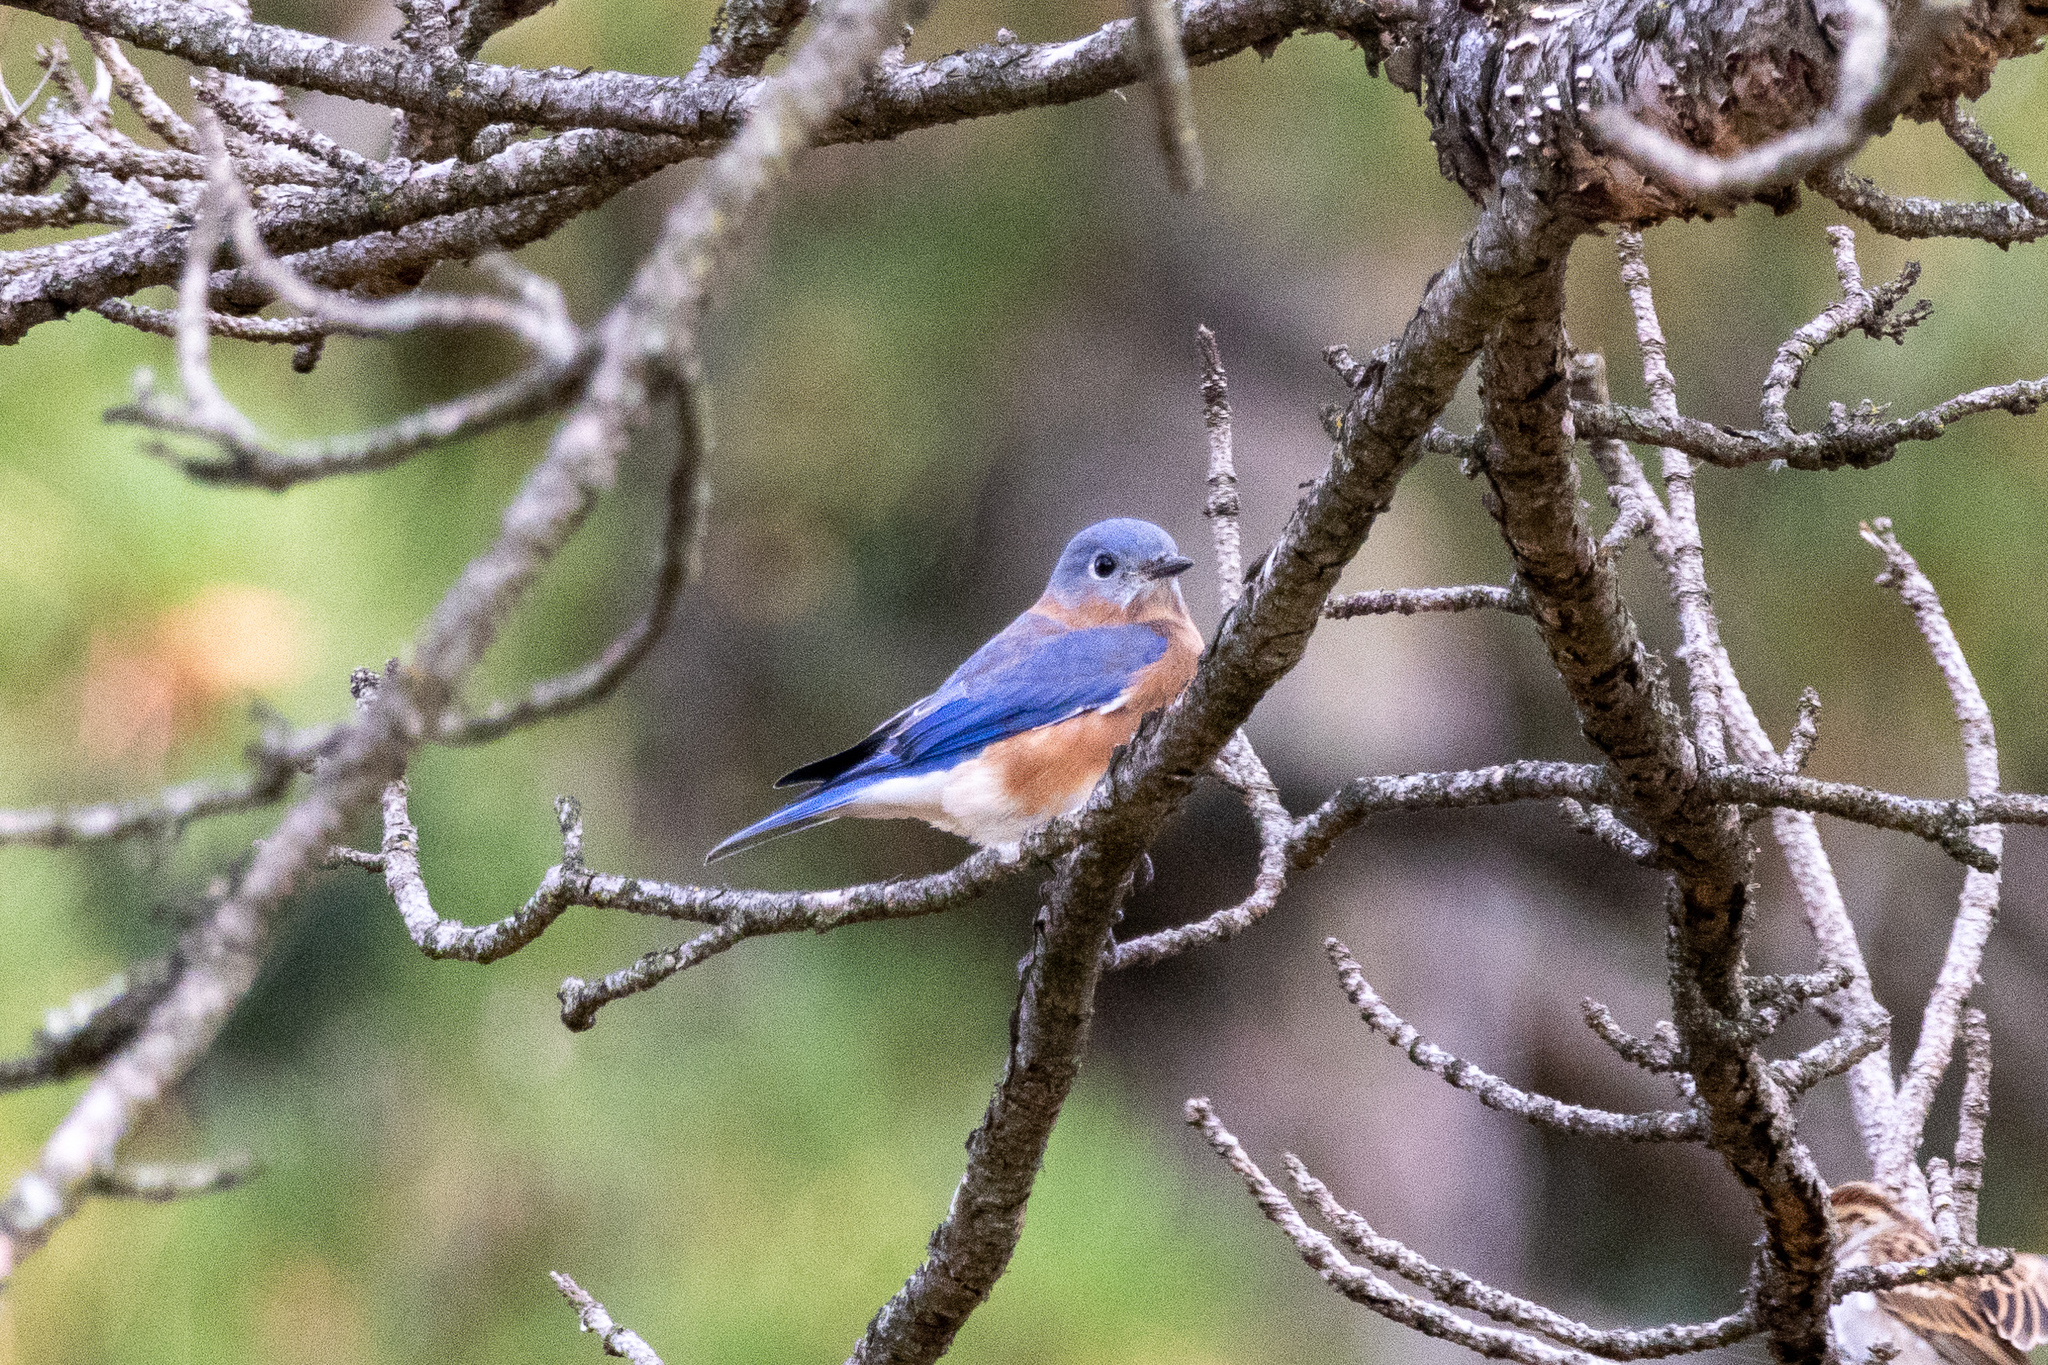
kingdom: Animalia
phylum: Chordata
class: Aves
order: Passeriformes
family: Turdidae
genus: Sialia
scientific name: Sialia sialis
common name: Eastern bluebird
